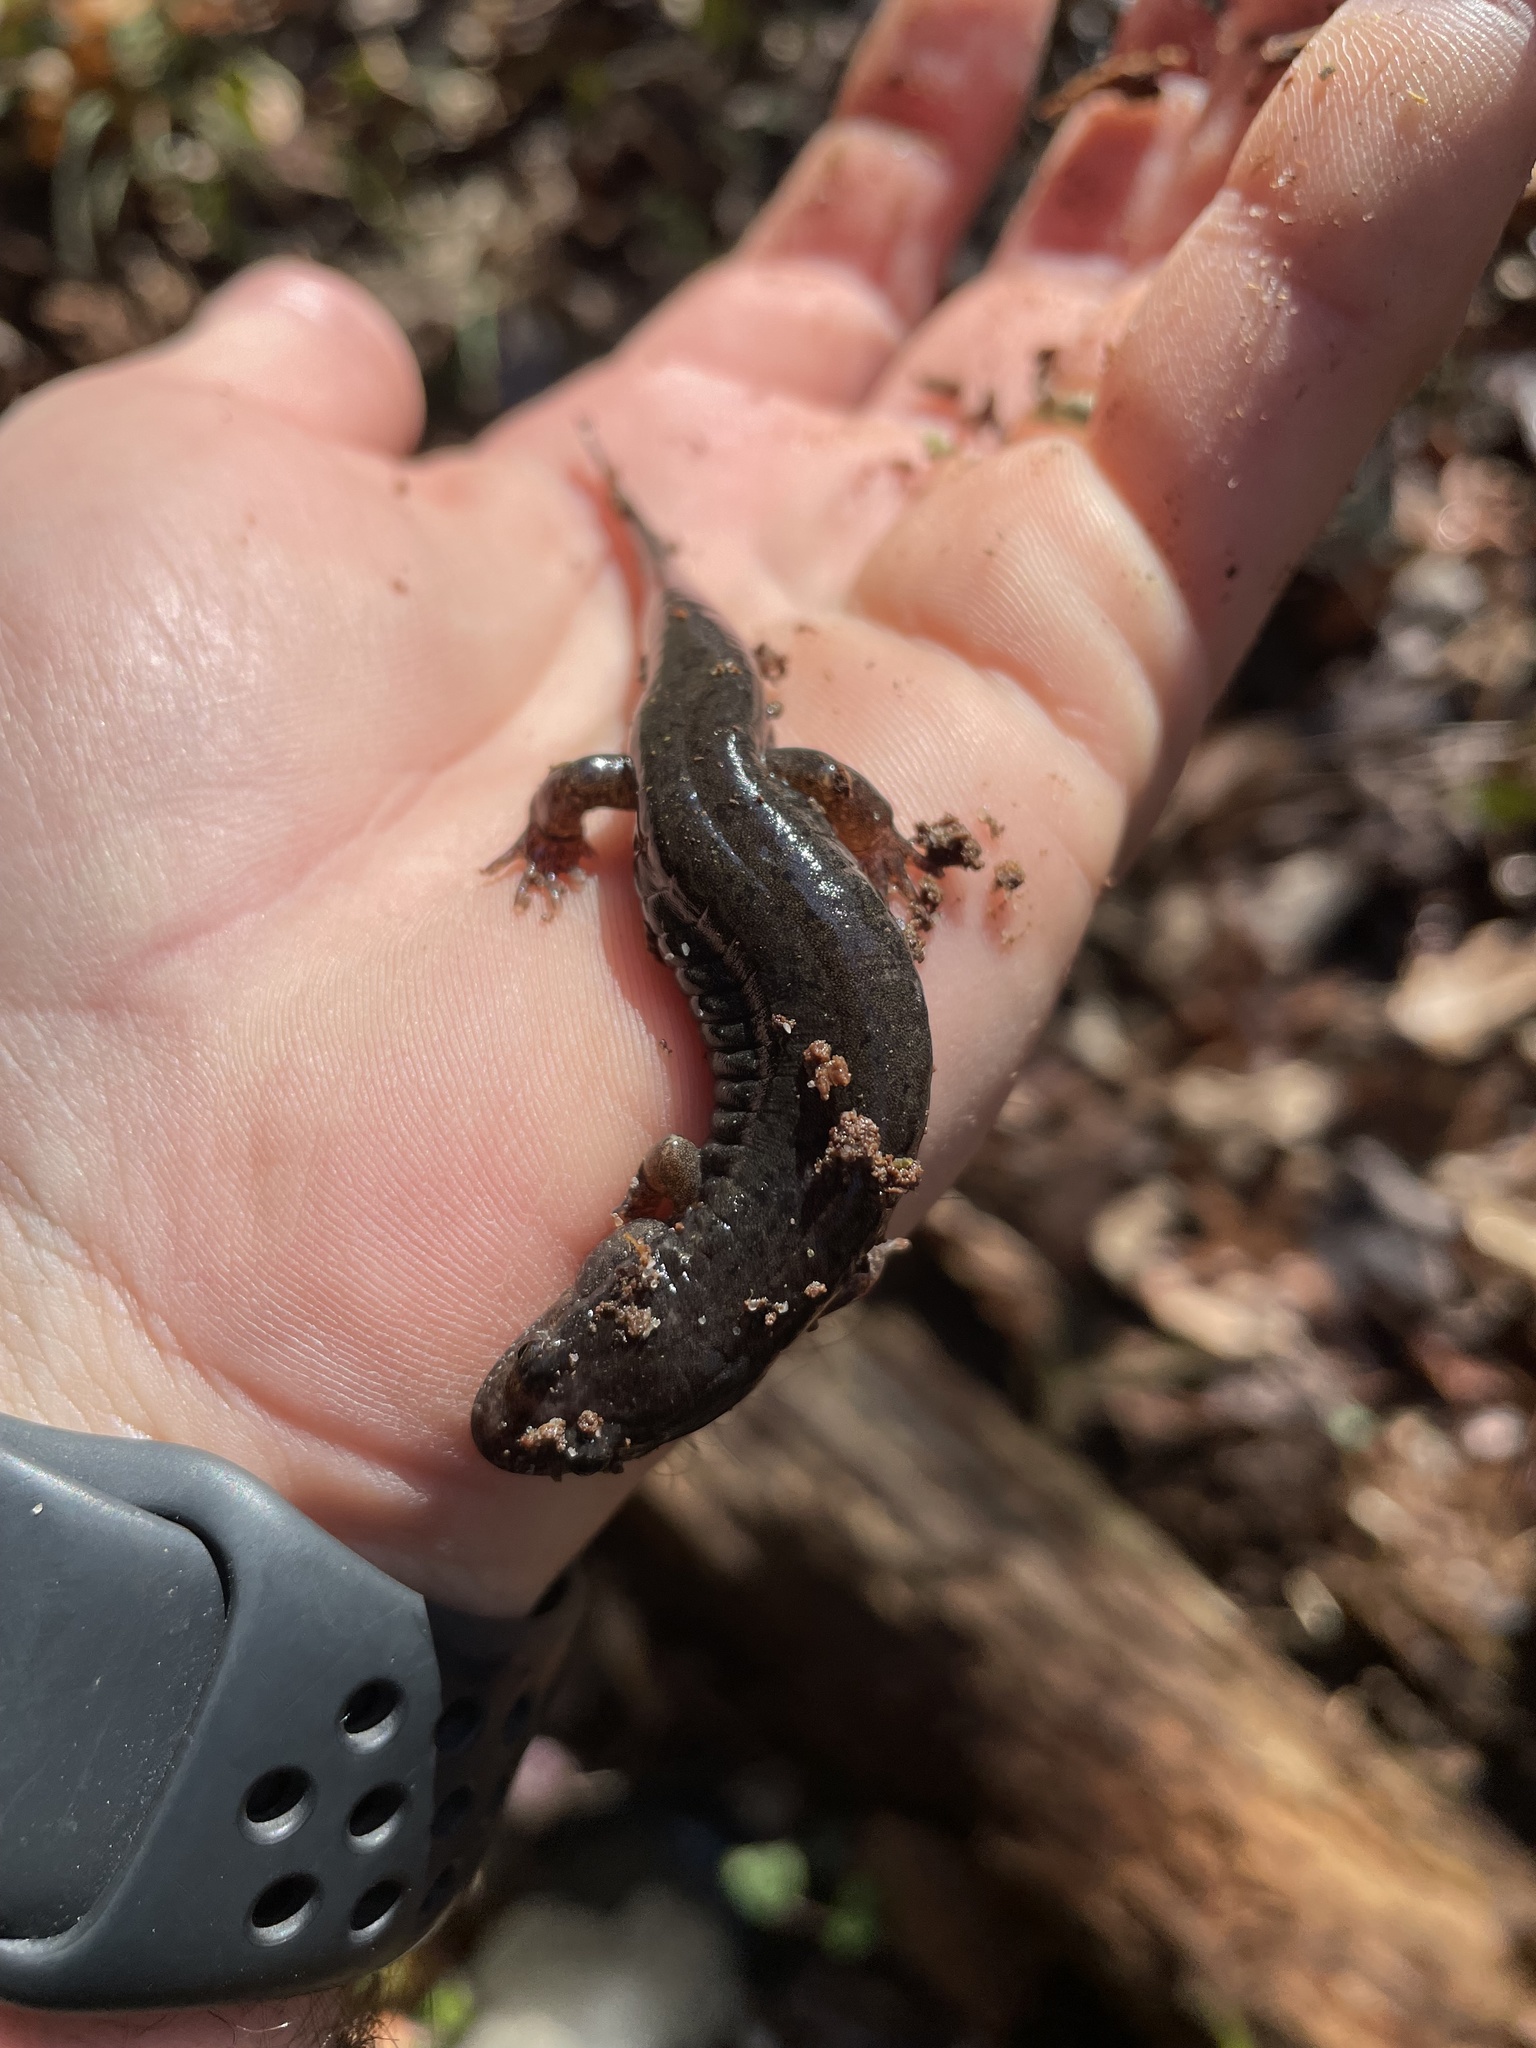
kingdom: Animalia
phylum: Chordata
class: Amphibia
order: Caudata
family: Plethodontidae
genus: Desmognathus
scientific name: Desmognathus conanti
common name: Spotted dusky salamander
